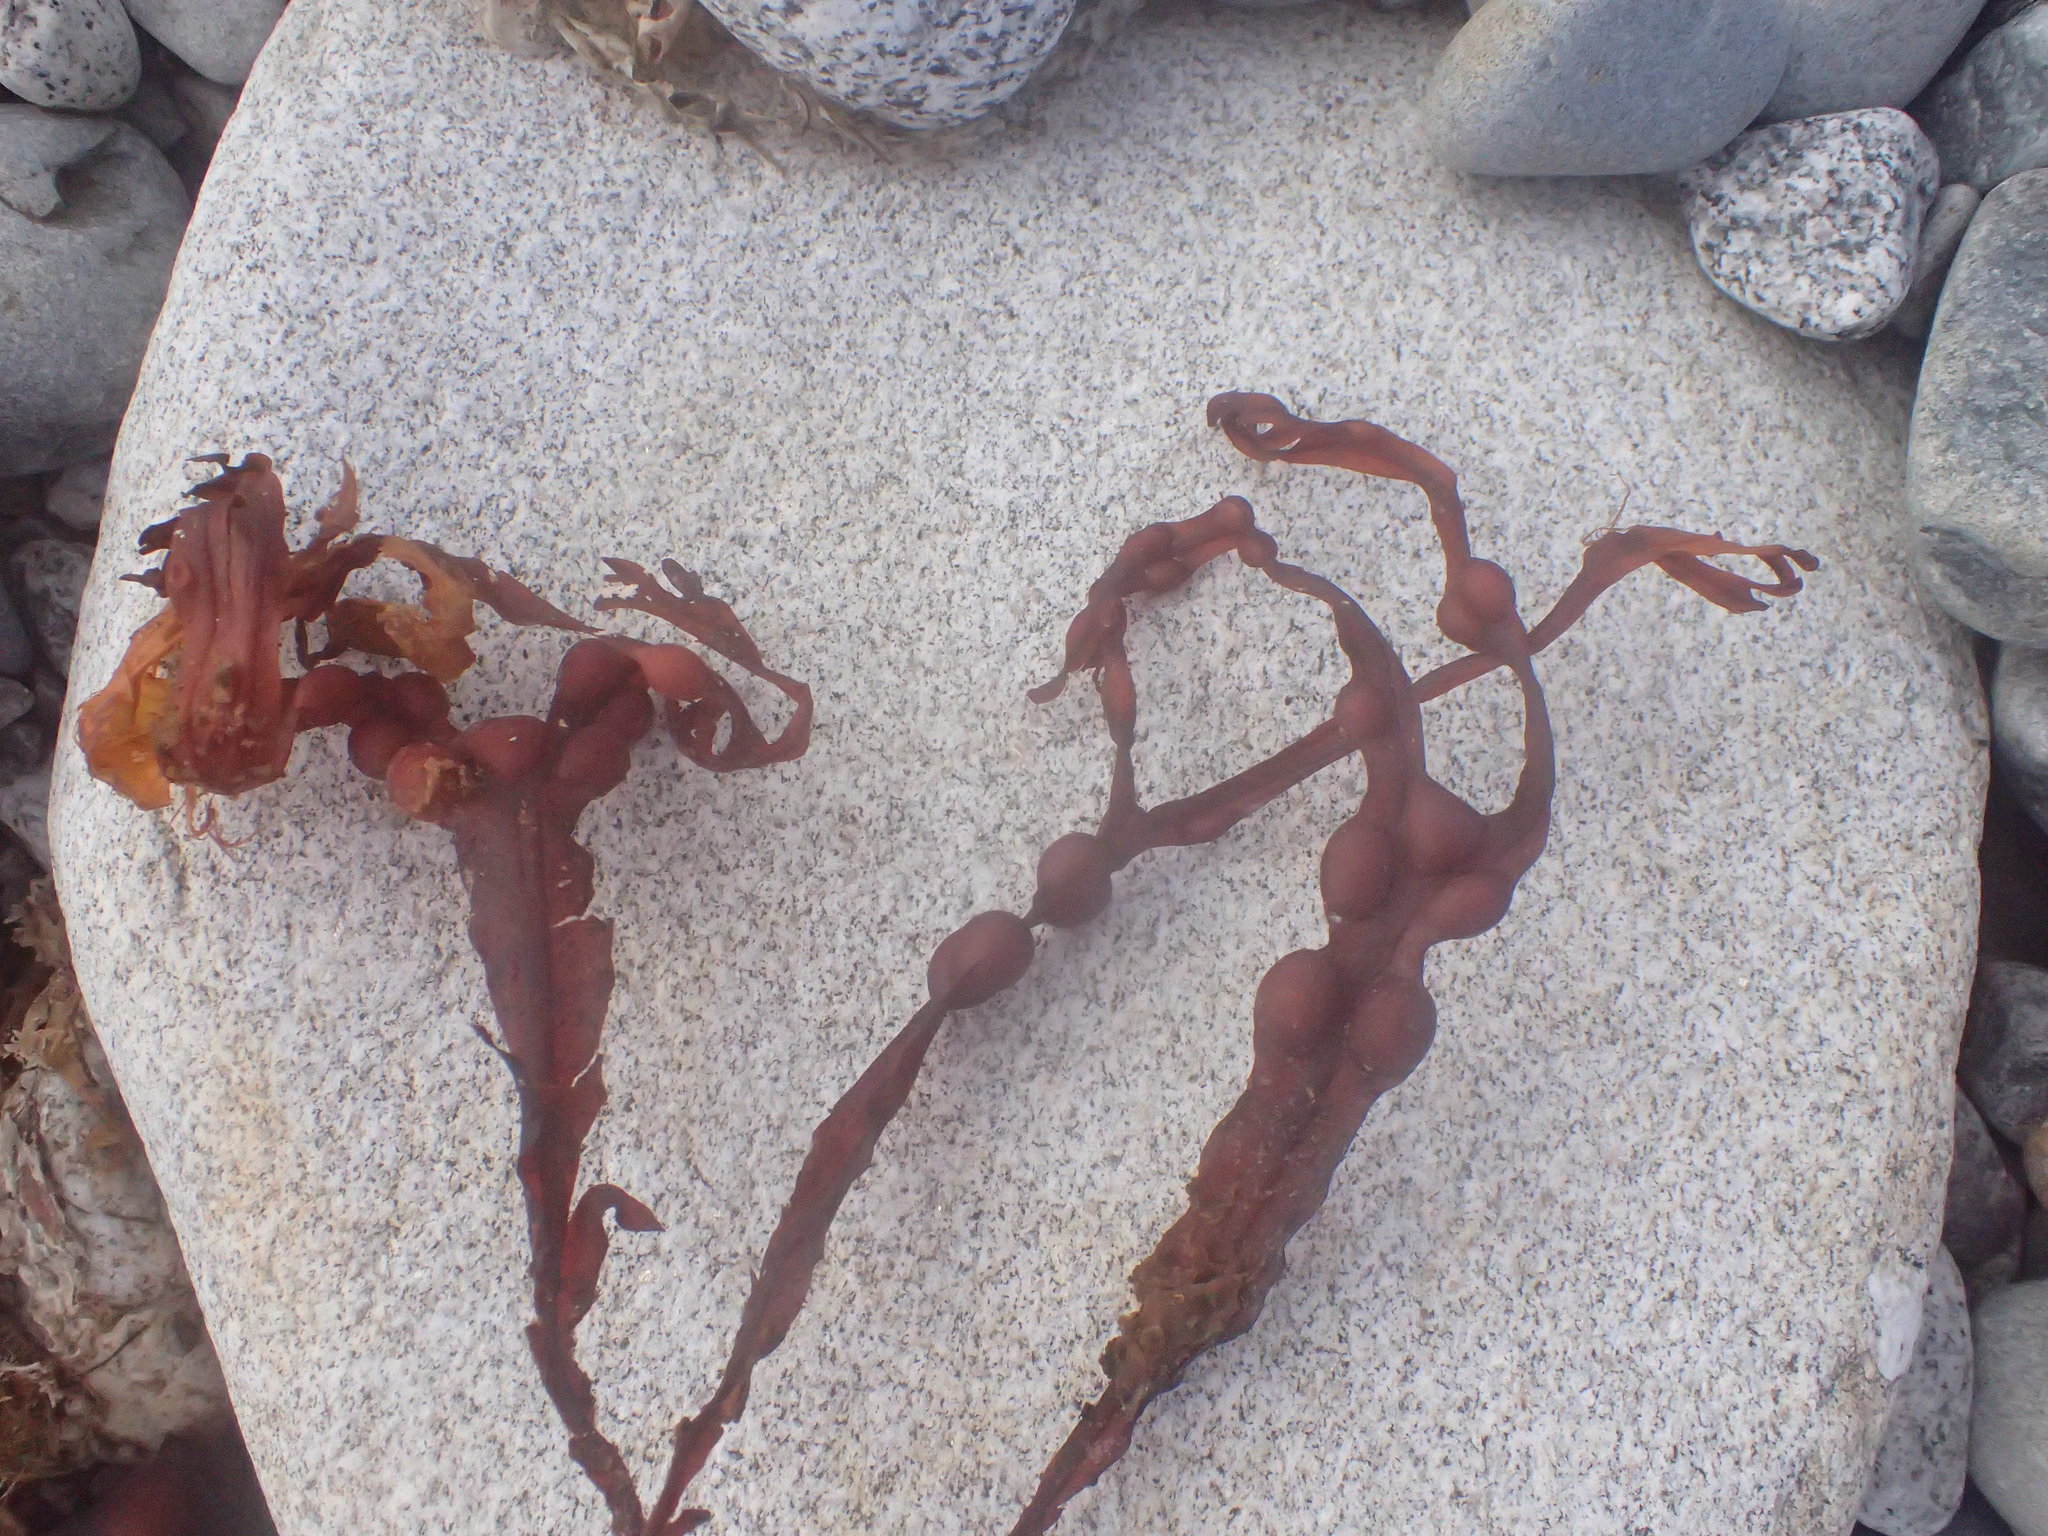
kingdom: Chromista
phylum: Ochrophyta
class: Phaeophyceae
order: Fucales
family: Fucaceae
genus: Fucus
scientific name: Fucus vesiculosus
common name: Bladder wrack
